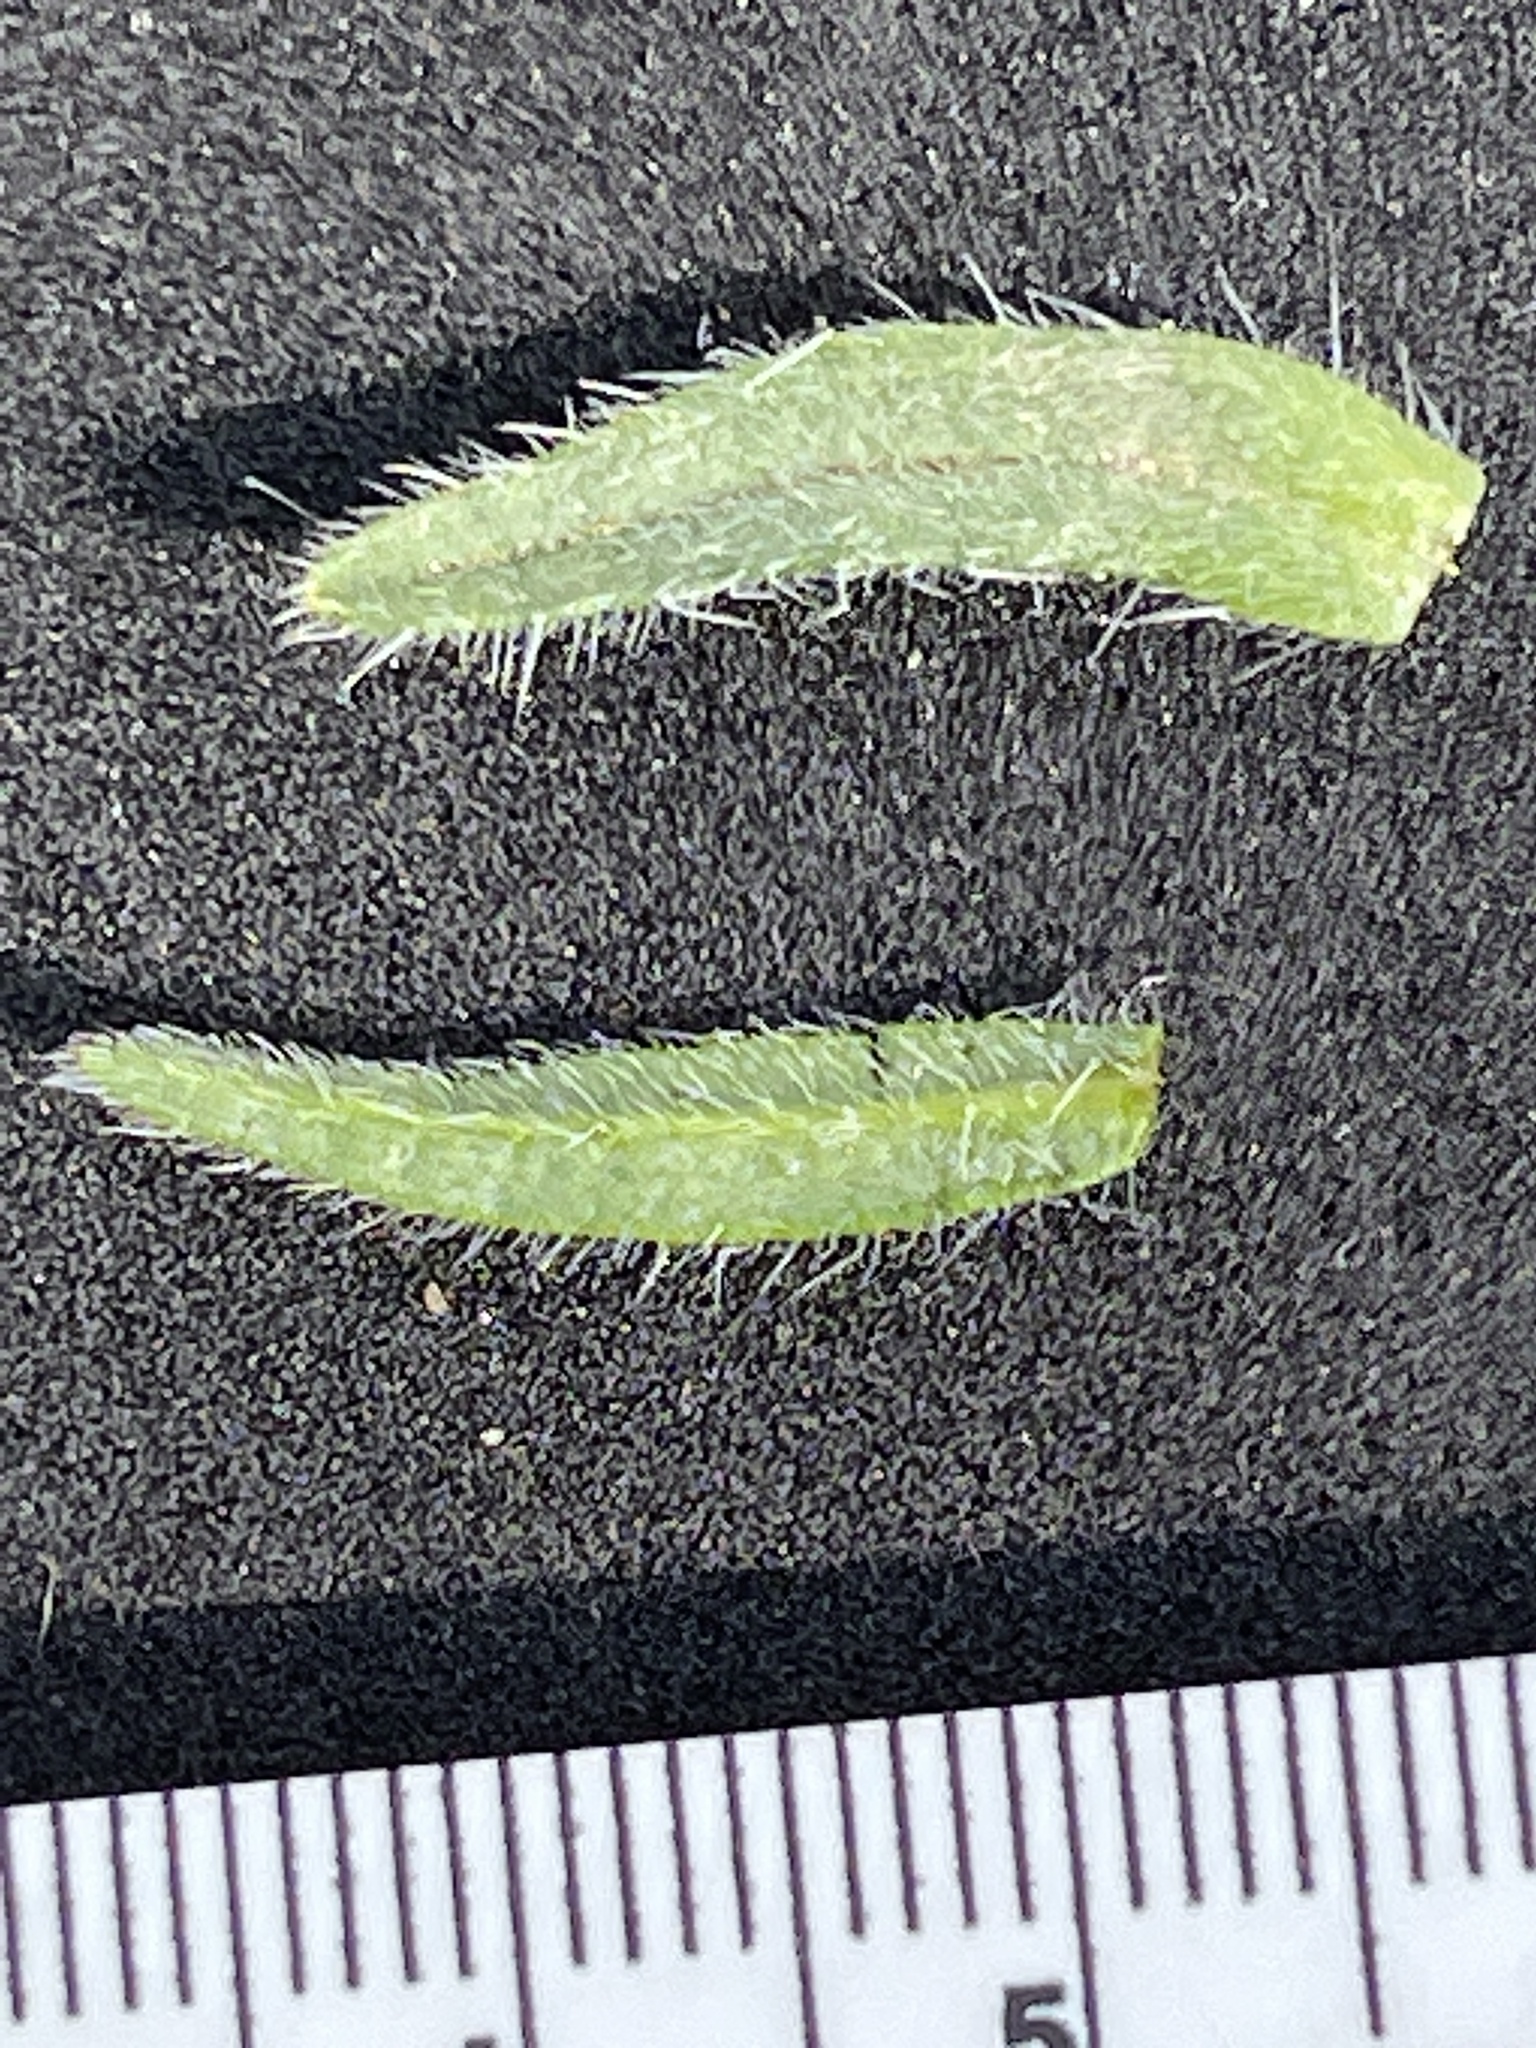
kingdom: Plantae
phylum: Tracheophyta
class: Magnoliopsida
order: Boraginales
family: Boraginaceae
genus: Cryptantha
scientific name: Cryptantha barbigera
